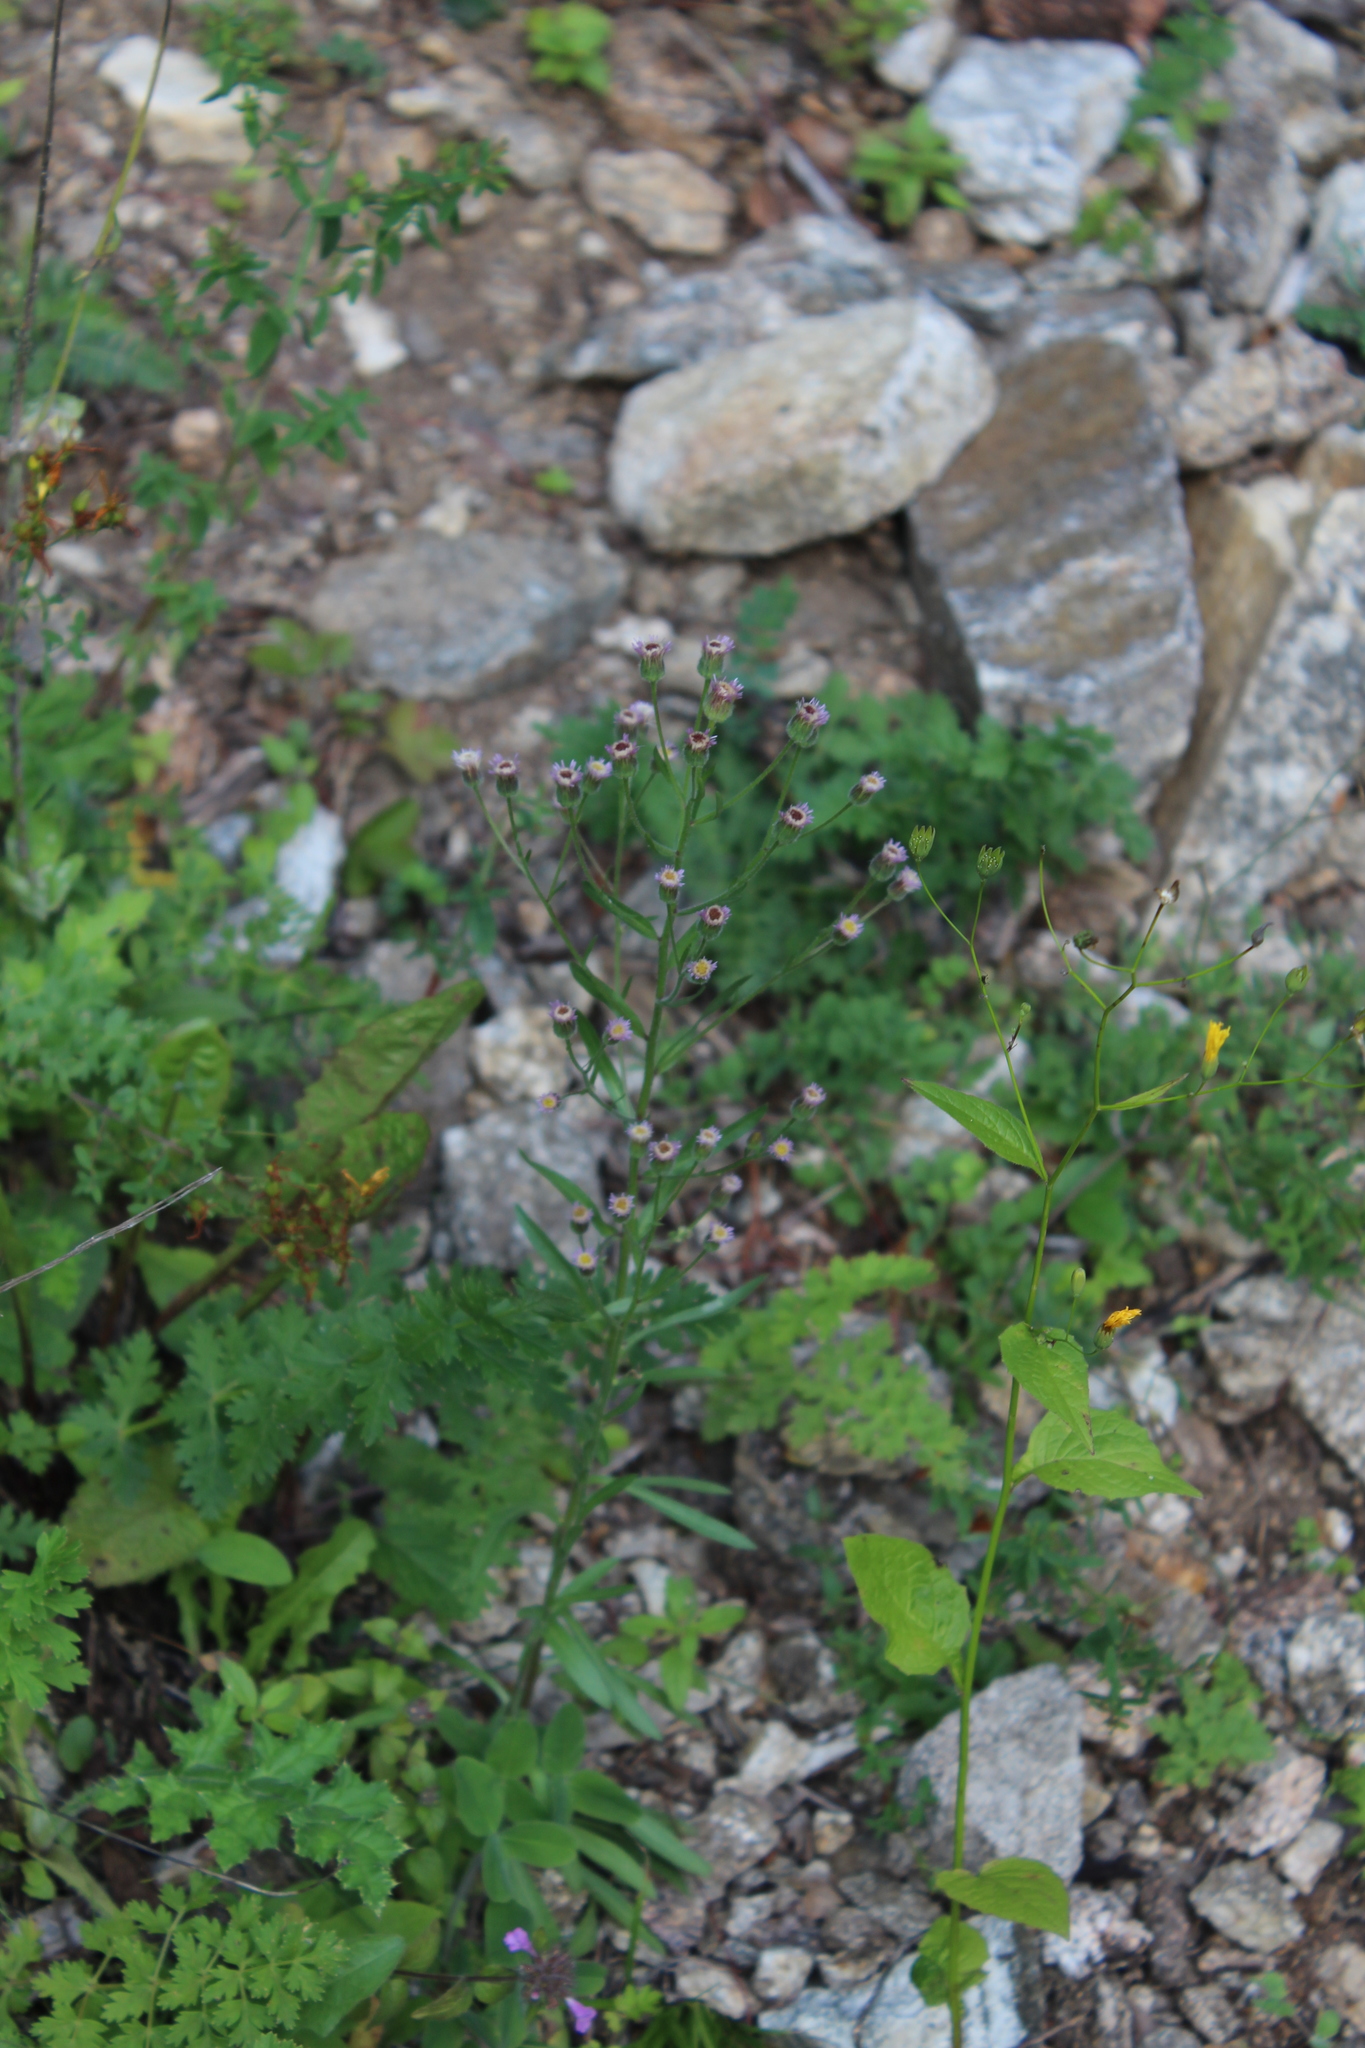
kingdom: Plantae
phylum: Tracheophyta
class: Magnoliopsida
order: Asterales
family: Asteraceae
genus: Erigeron
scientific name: Erigeron podolicus
